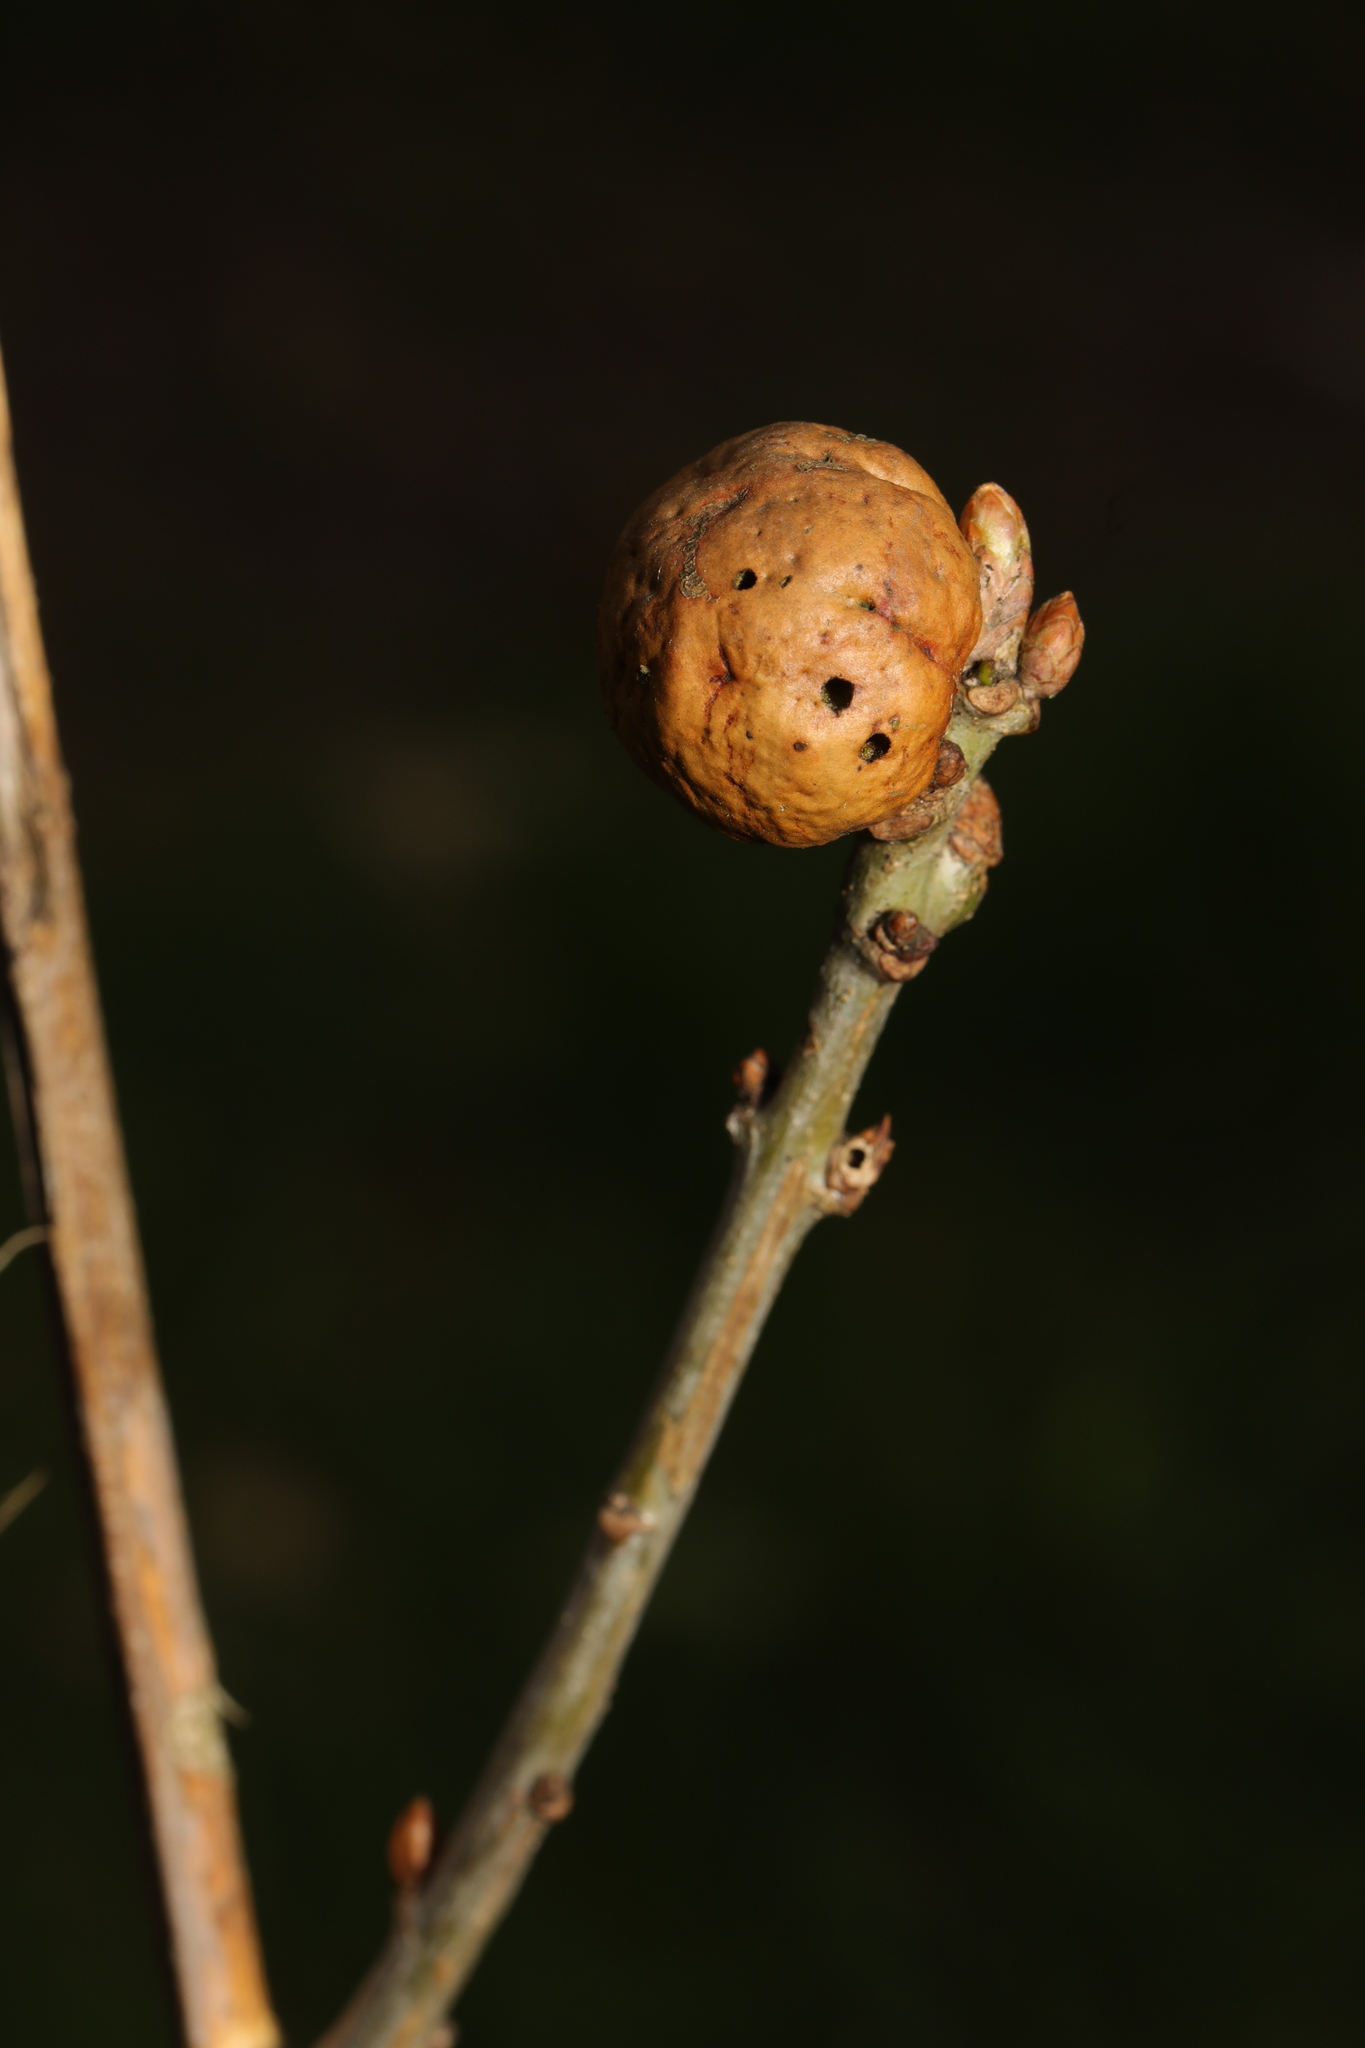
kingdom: Animalia
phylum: Arthropoda
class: Insecta
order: Hymenoptera
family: Cynipidae
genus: Andricus
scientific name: Andricus kollari
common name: Marble gall
